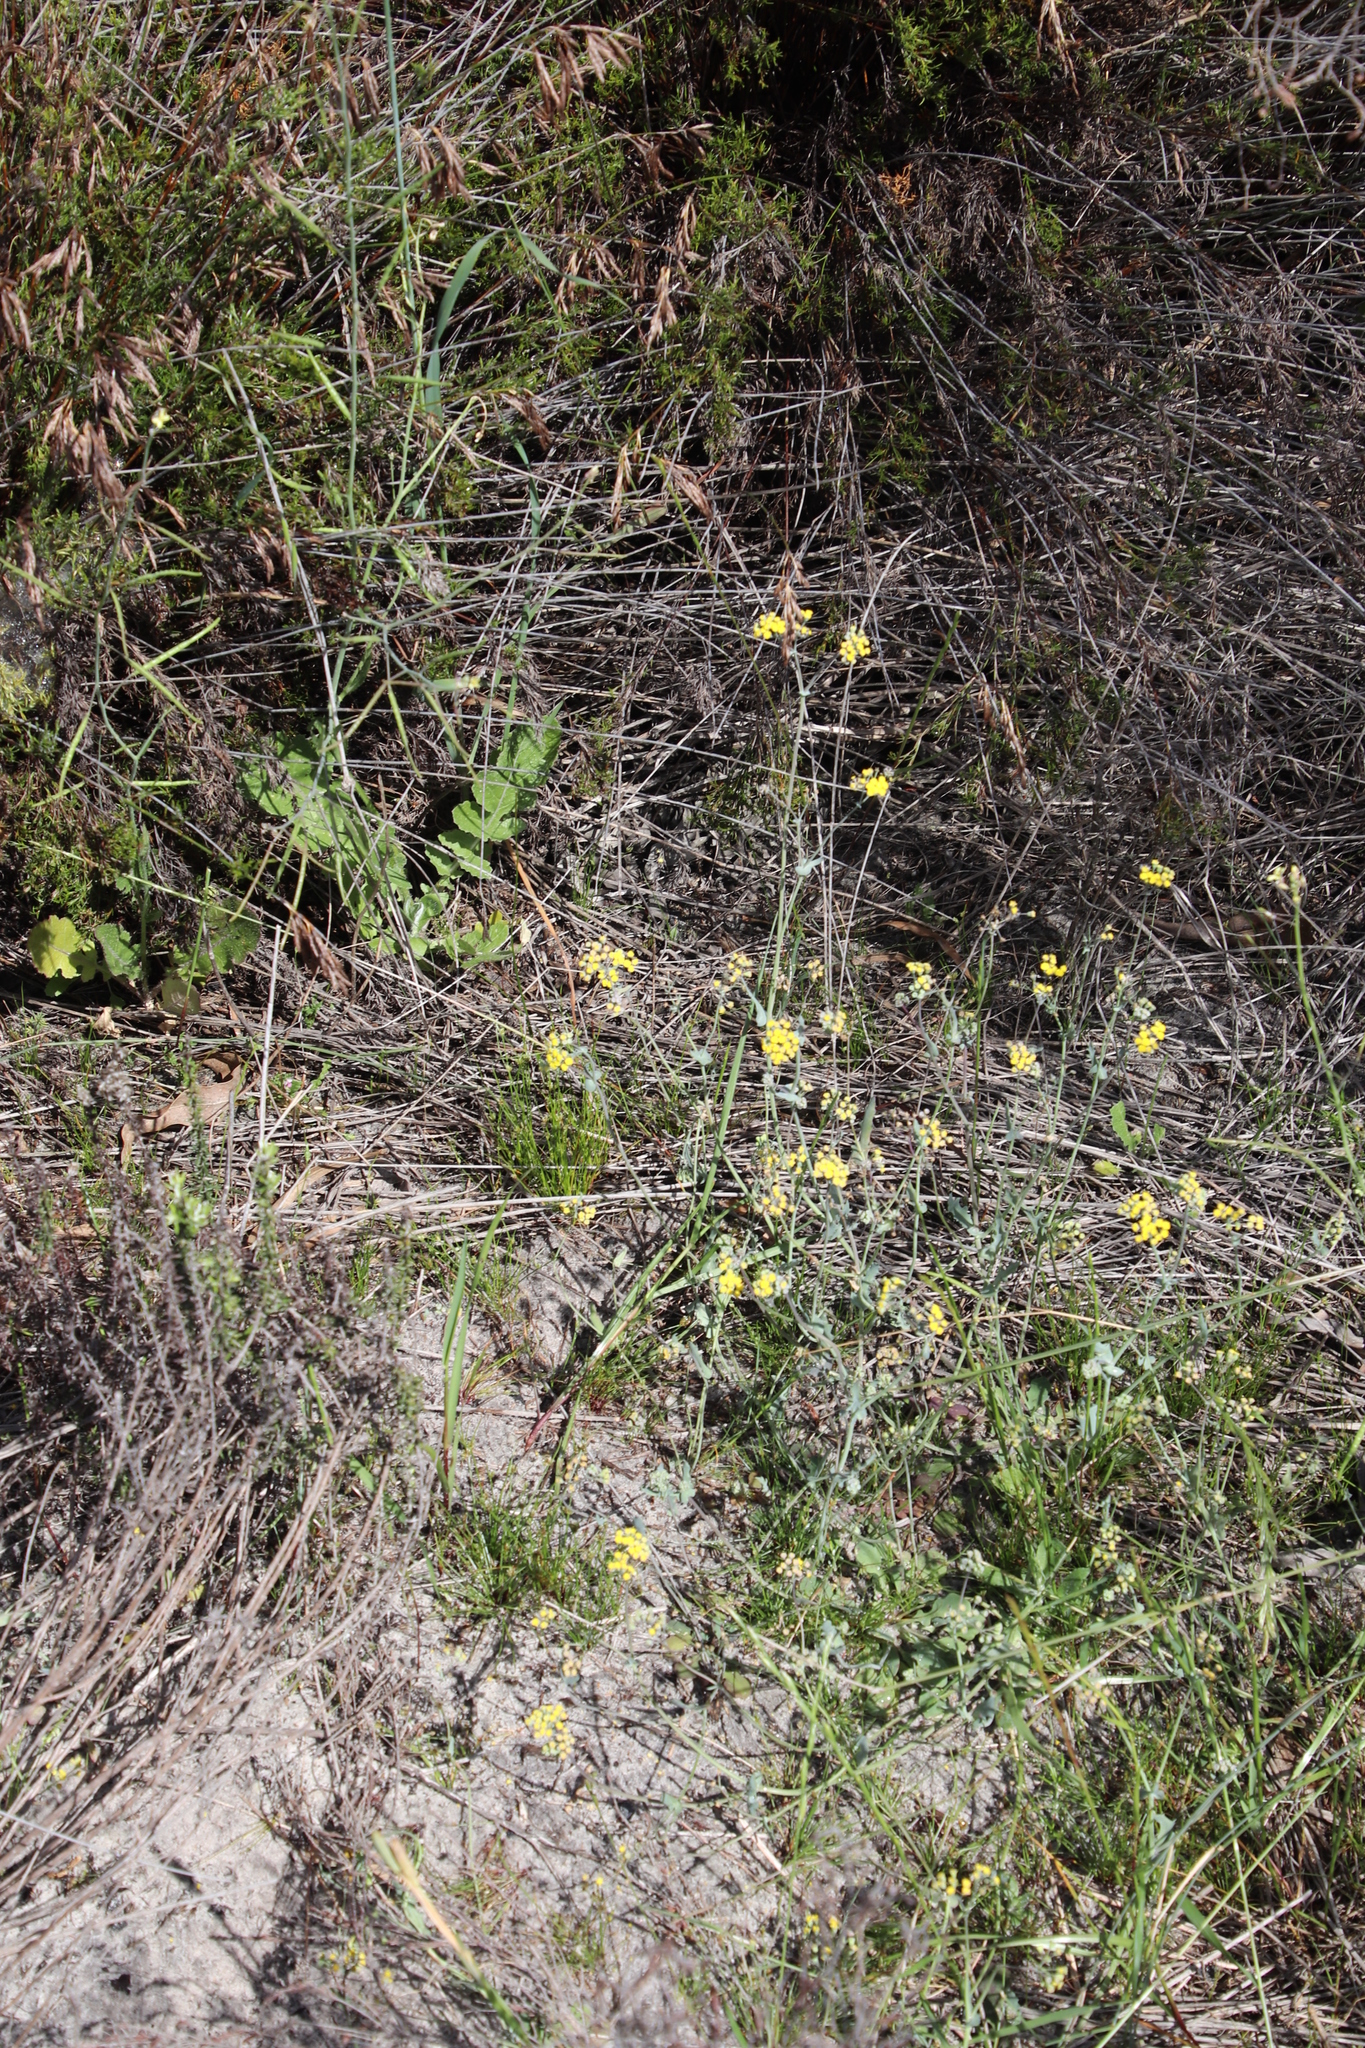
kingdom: Plantae
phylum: Tracheophyta
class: Magnoliopsida
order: Asterales
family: Asteraceae
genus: Gymnodiscus
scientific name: Gymnodiscus capillaris
